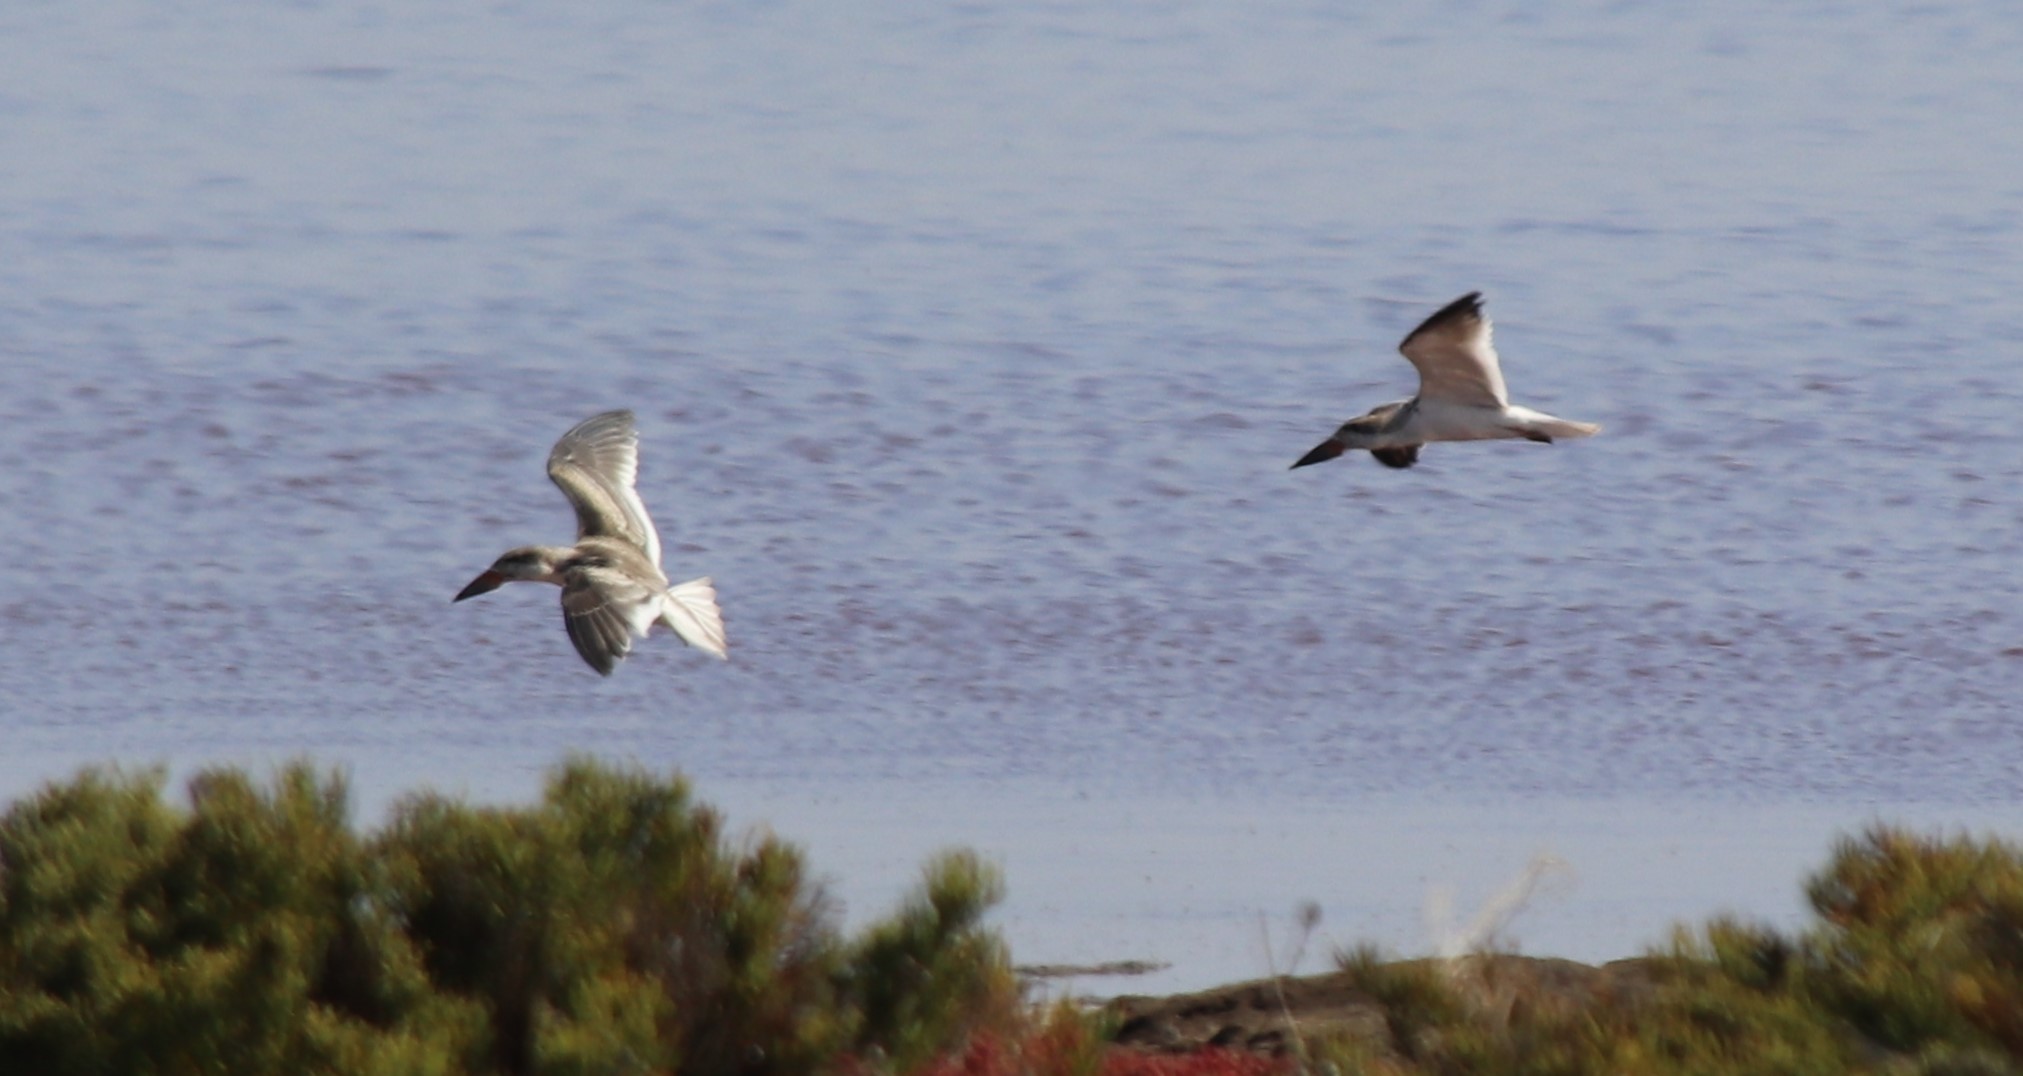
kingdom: Animalia
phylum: Chordata
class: Aves
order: Charadriiformes
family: Laridae
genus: Rynchops
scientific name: Rynchops niger
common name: Black skimmer
